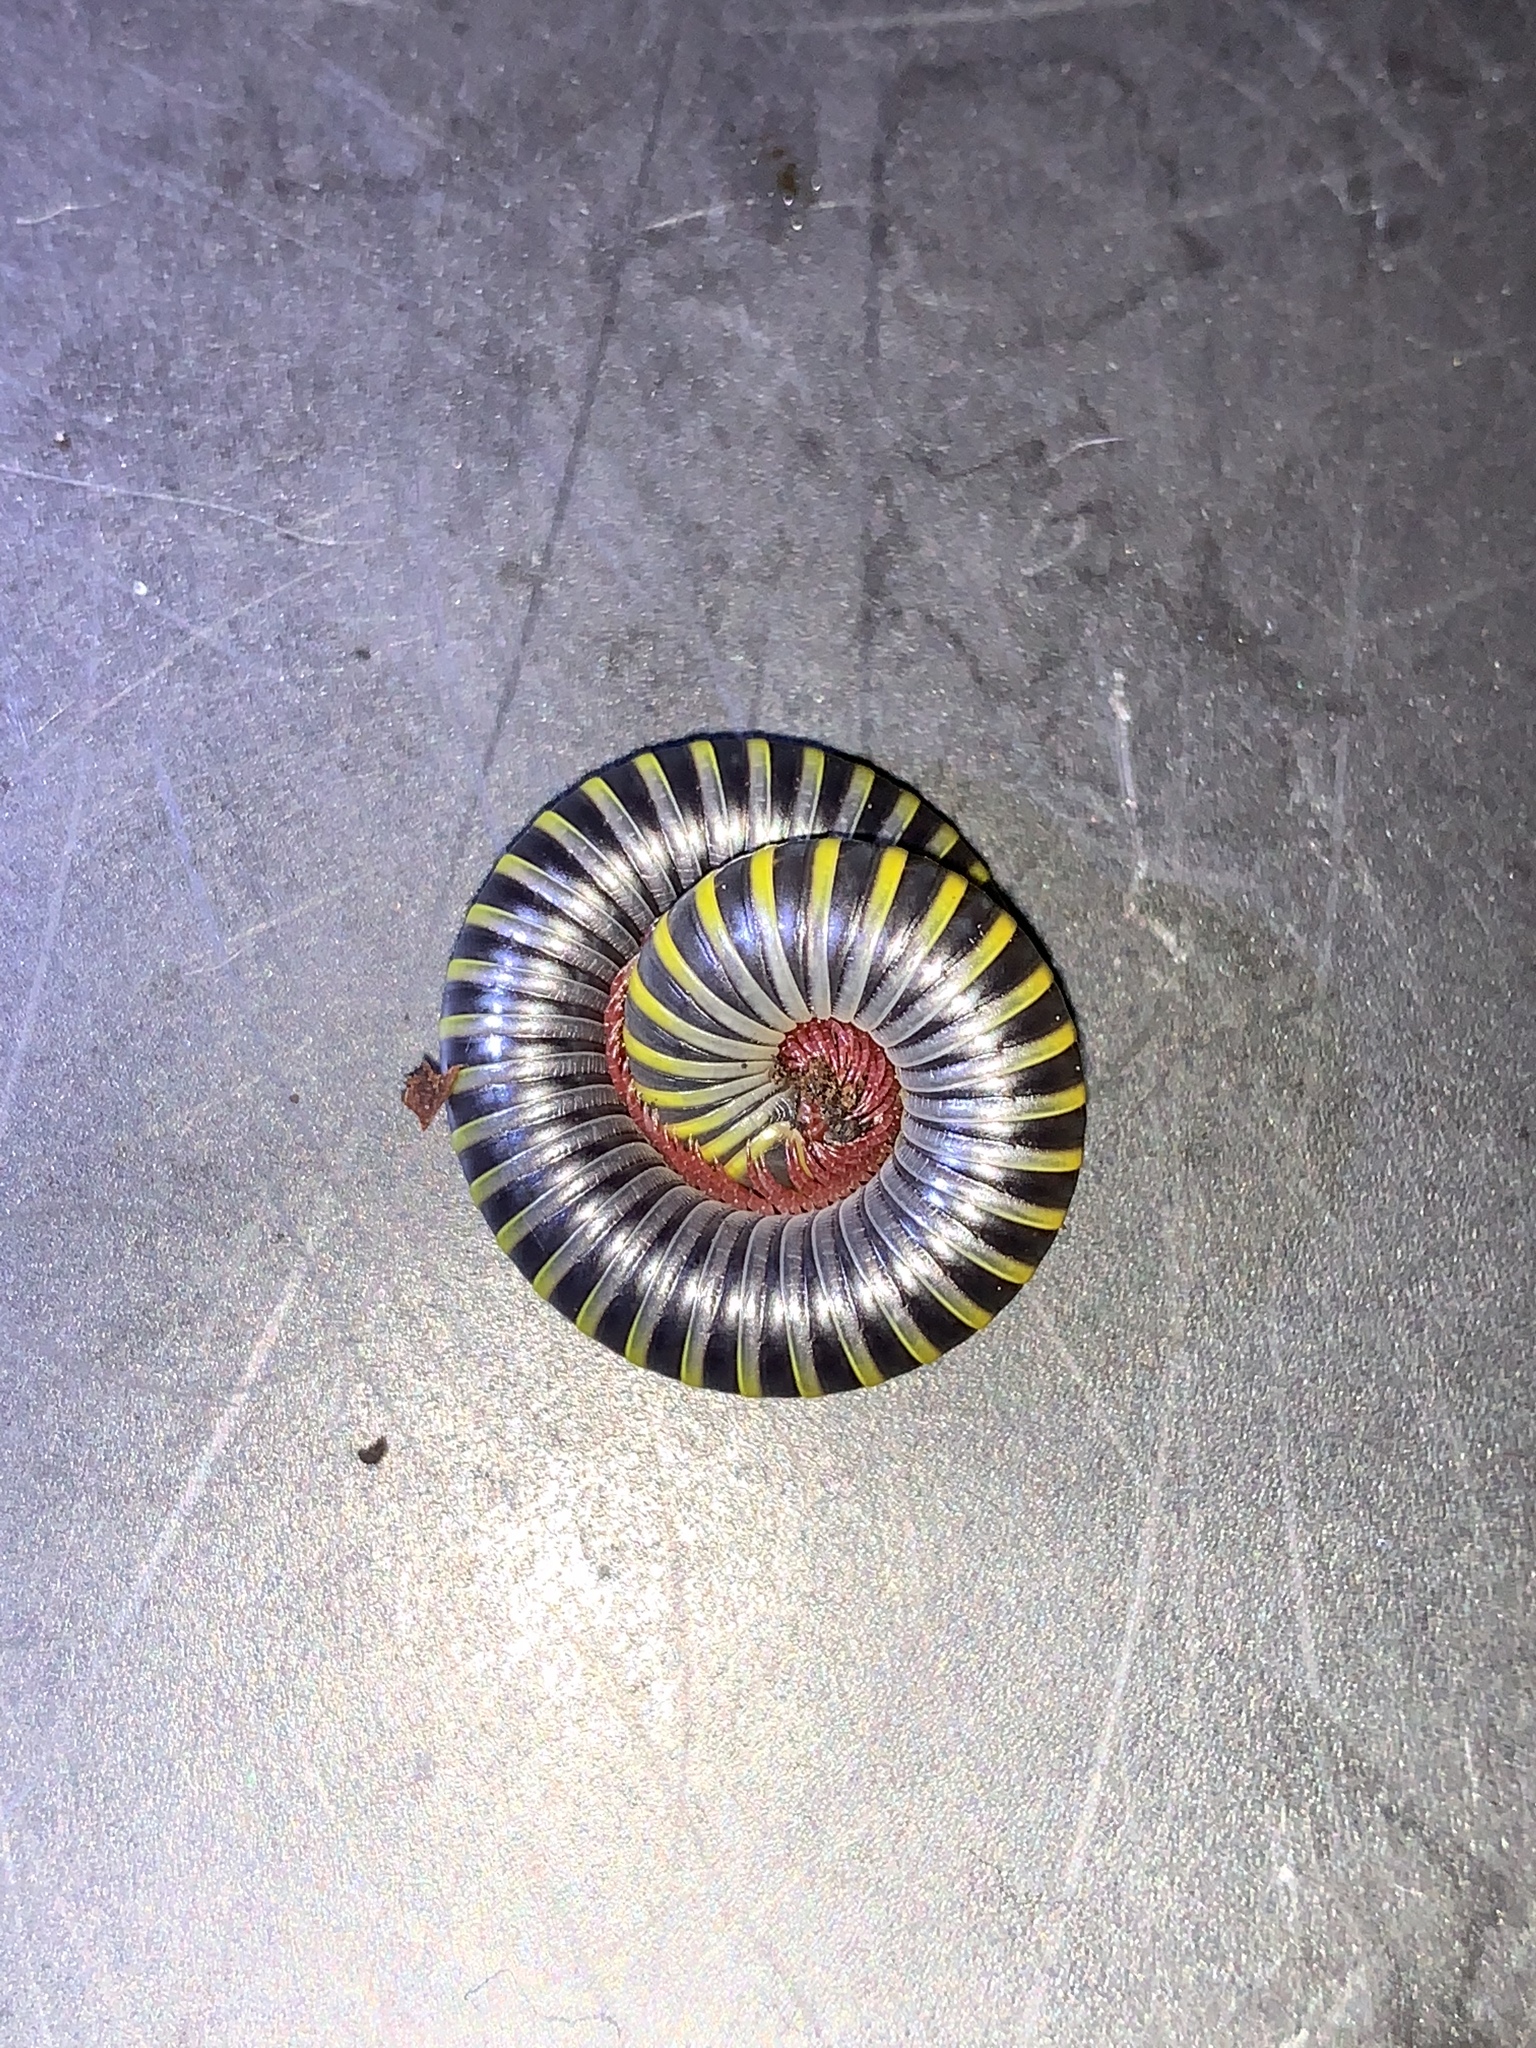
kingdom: Animalia
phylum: Arthropoda
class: Diplopoda
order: Spirobolida
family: Rhinocricidae
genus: Anadenobolus
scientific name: Anadenobolus monilicornis
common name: Caribbean millipede
